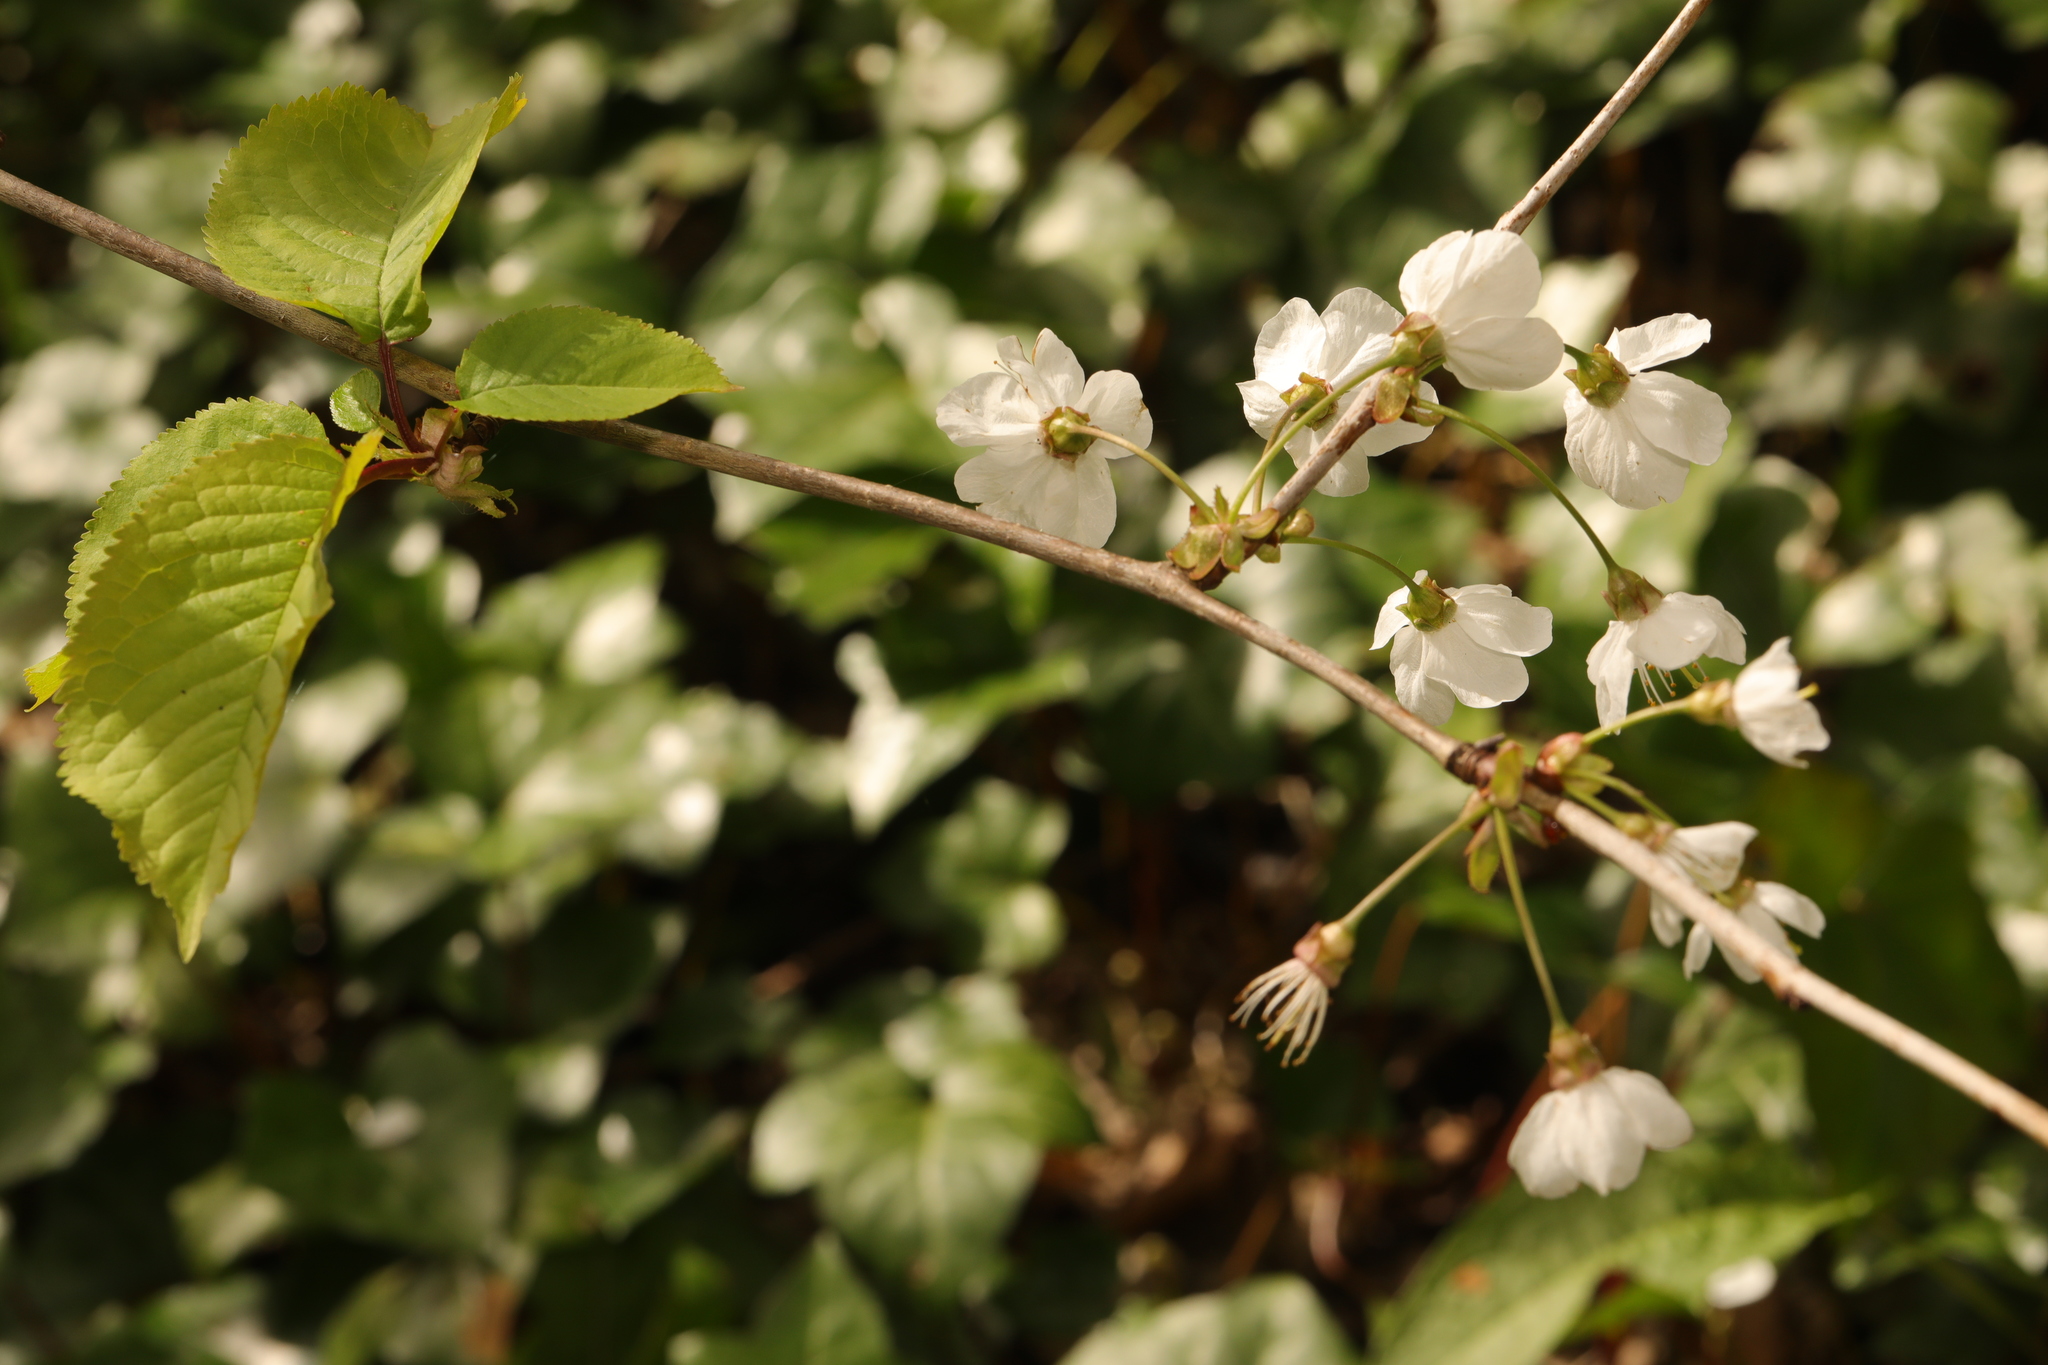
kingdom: Plantae
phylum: Tracheophyta
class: Magnoliopsida
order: Rosales
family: Rosaceae
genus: Prunus
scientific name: Prunus avium
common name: Sweet cherry
